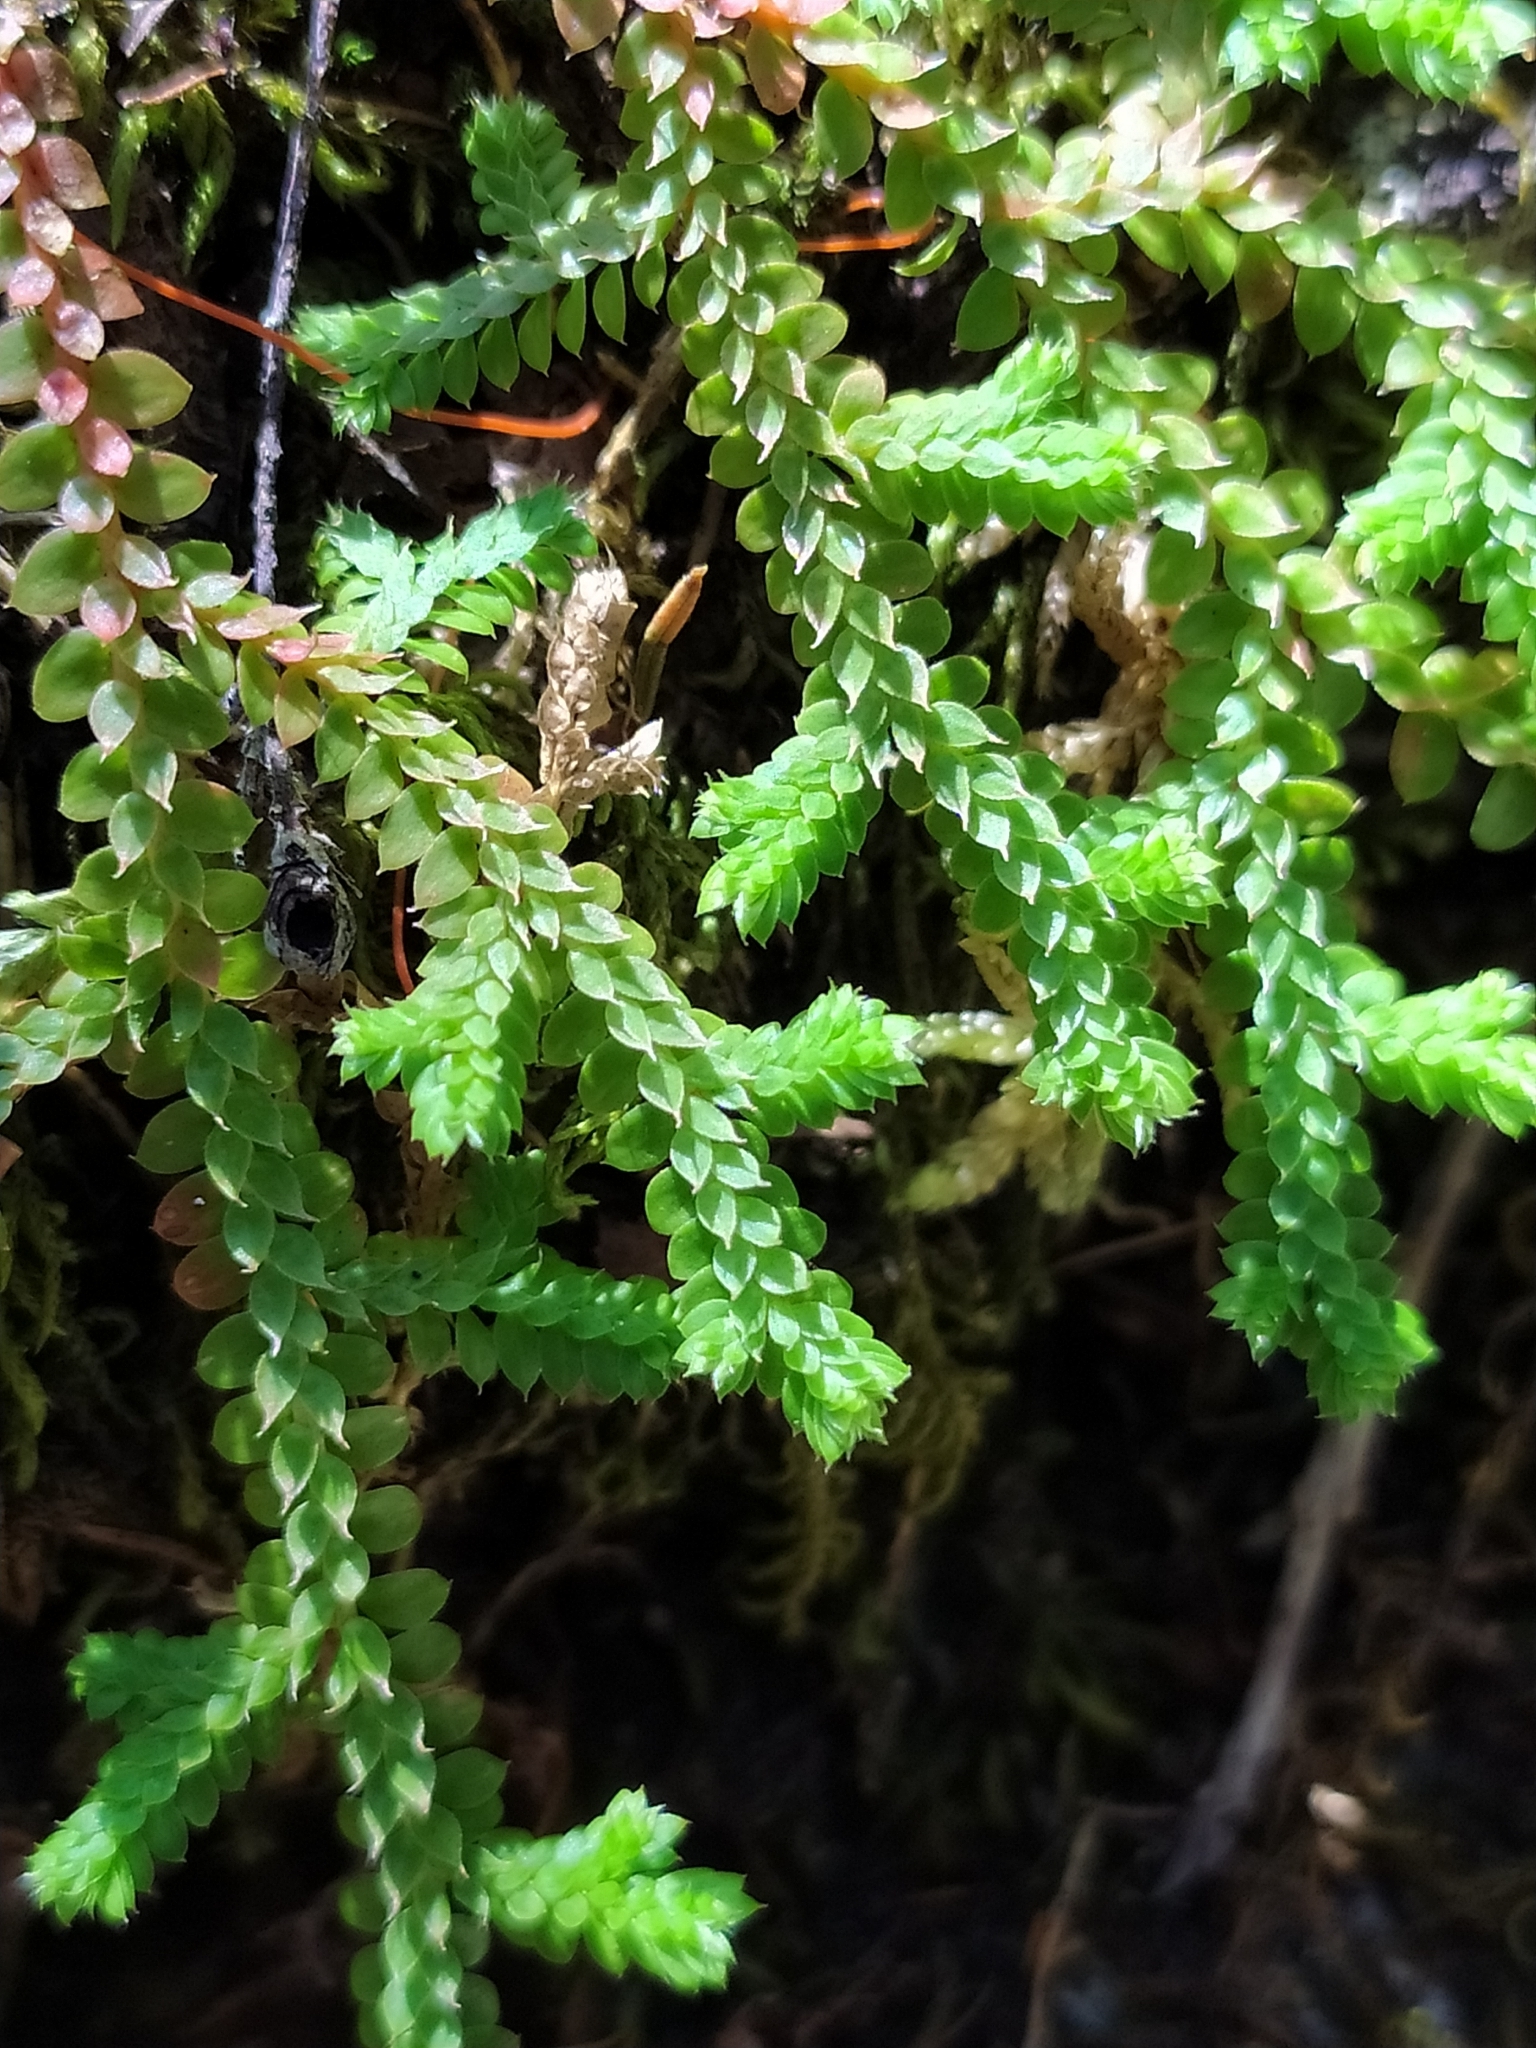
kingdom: Plantae
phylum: Tracheophyta
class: Lycopodiopsida
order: Selaginellales
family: Selaginellaceae
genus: Selaginella
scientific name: Selaginella denticulata
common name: Toothed-leaved clubmoss
